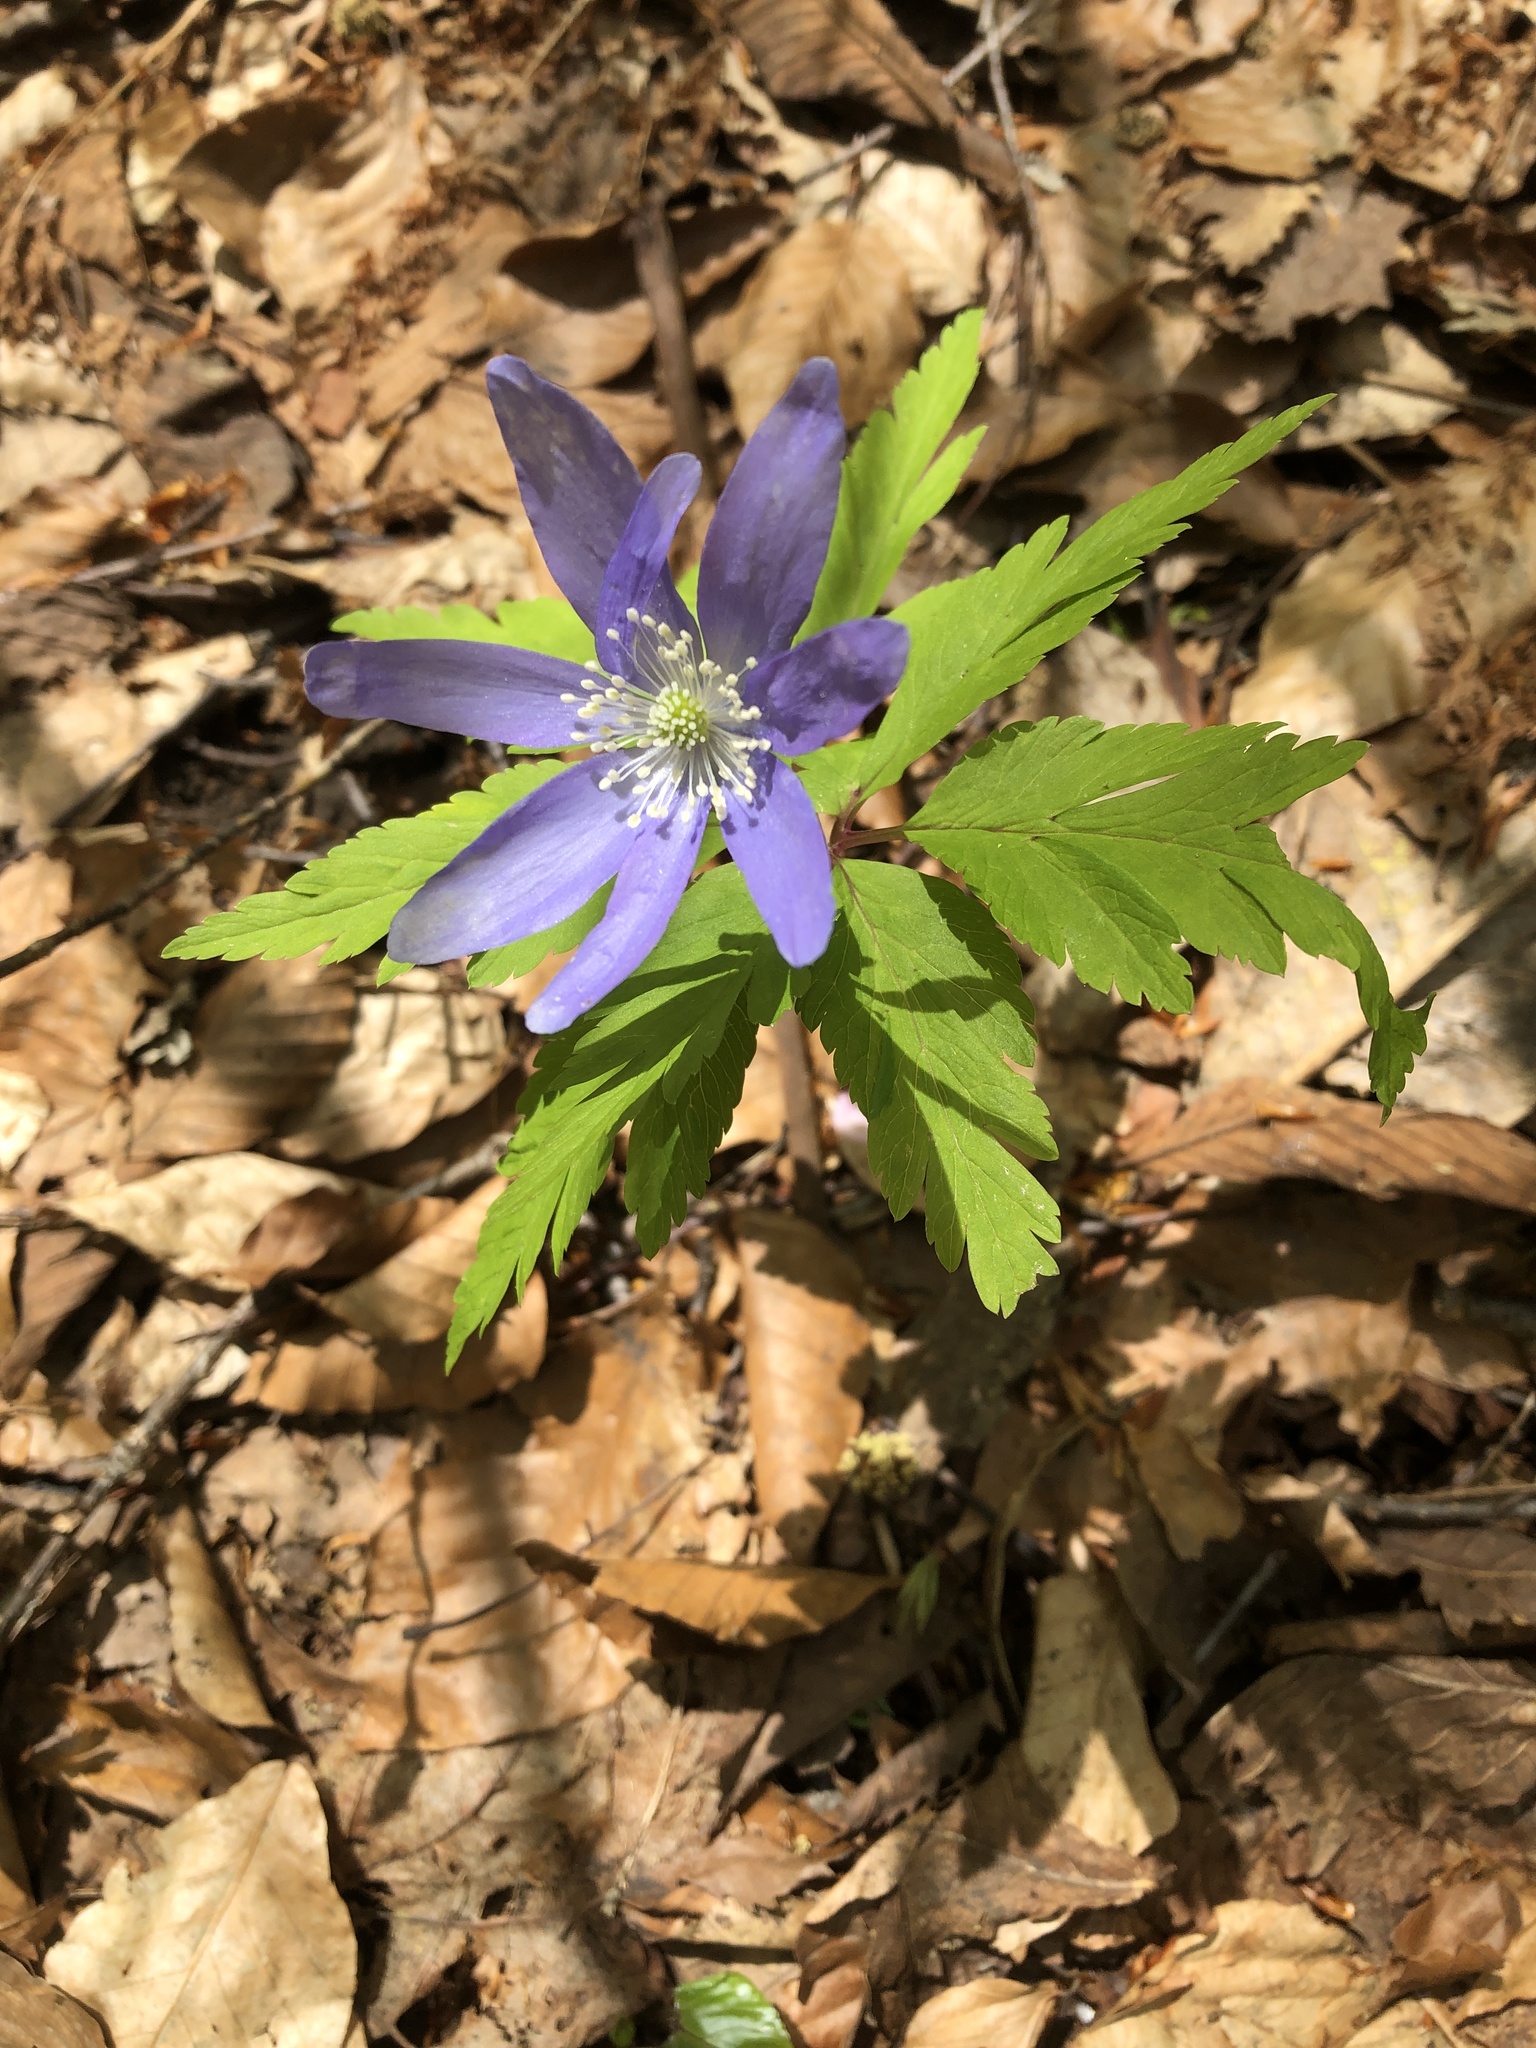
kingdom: Plantae
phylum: Tracheophyta
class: Magnoliopsida
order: Ranunculales
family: Ranunculaceae
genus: Anemone
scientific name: Anemone pseudoaltaica
